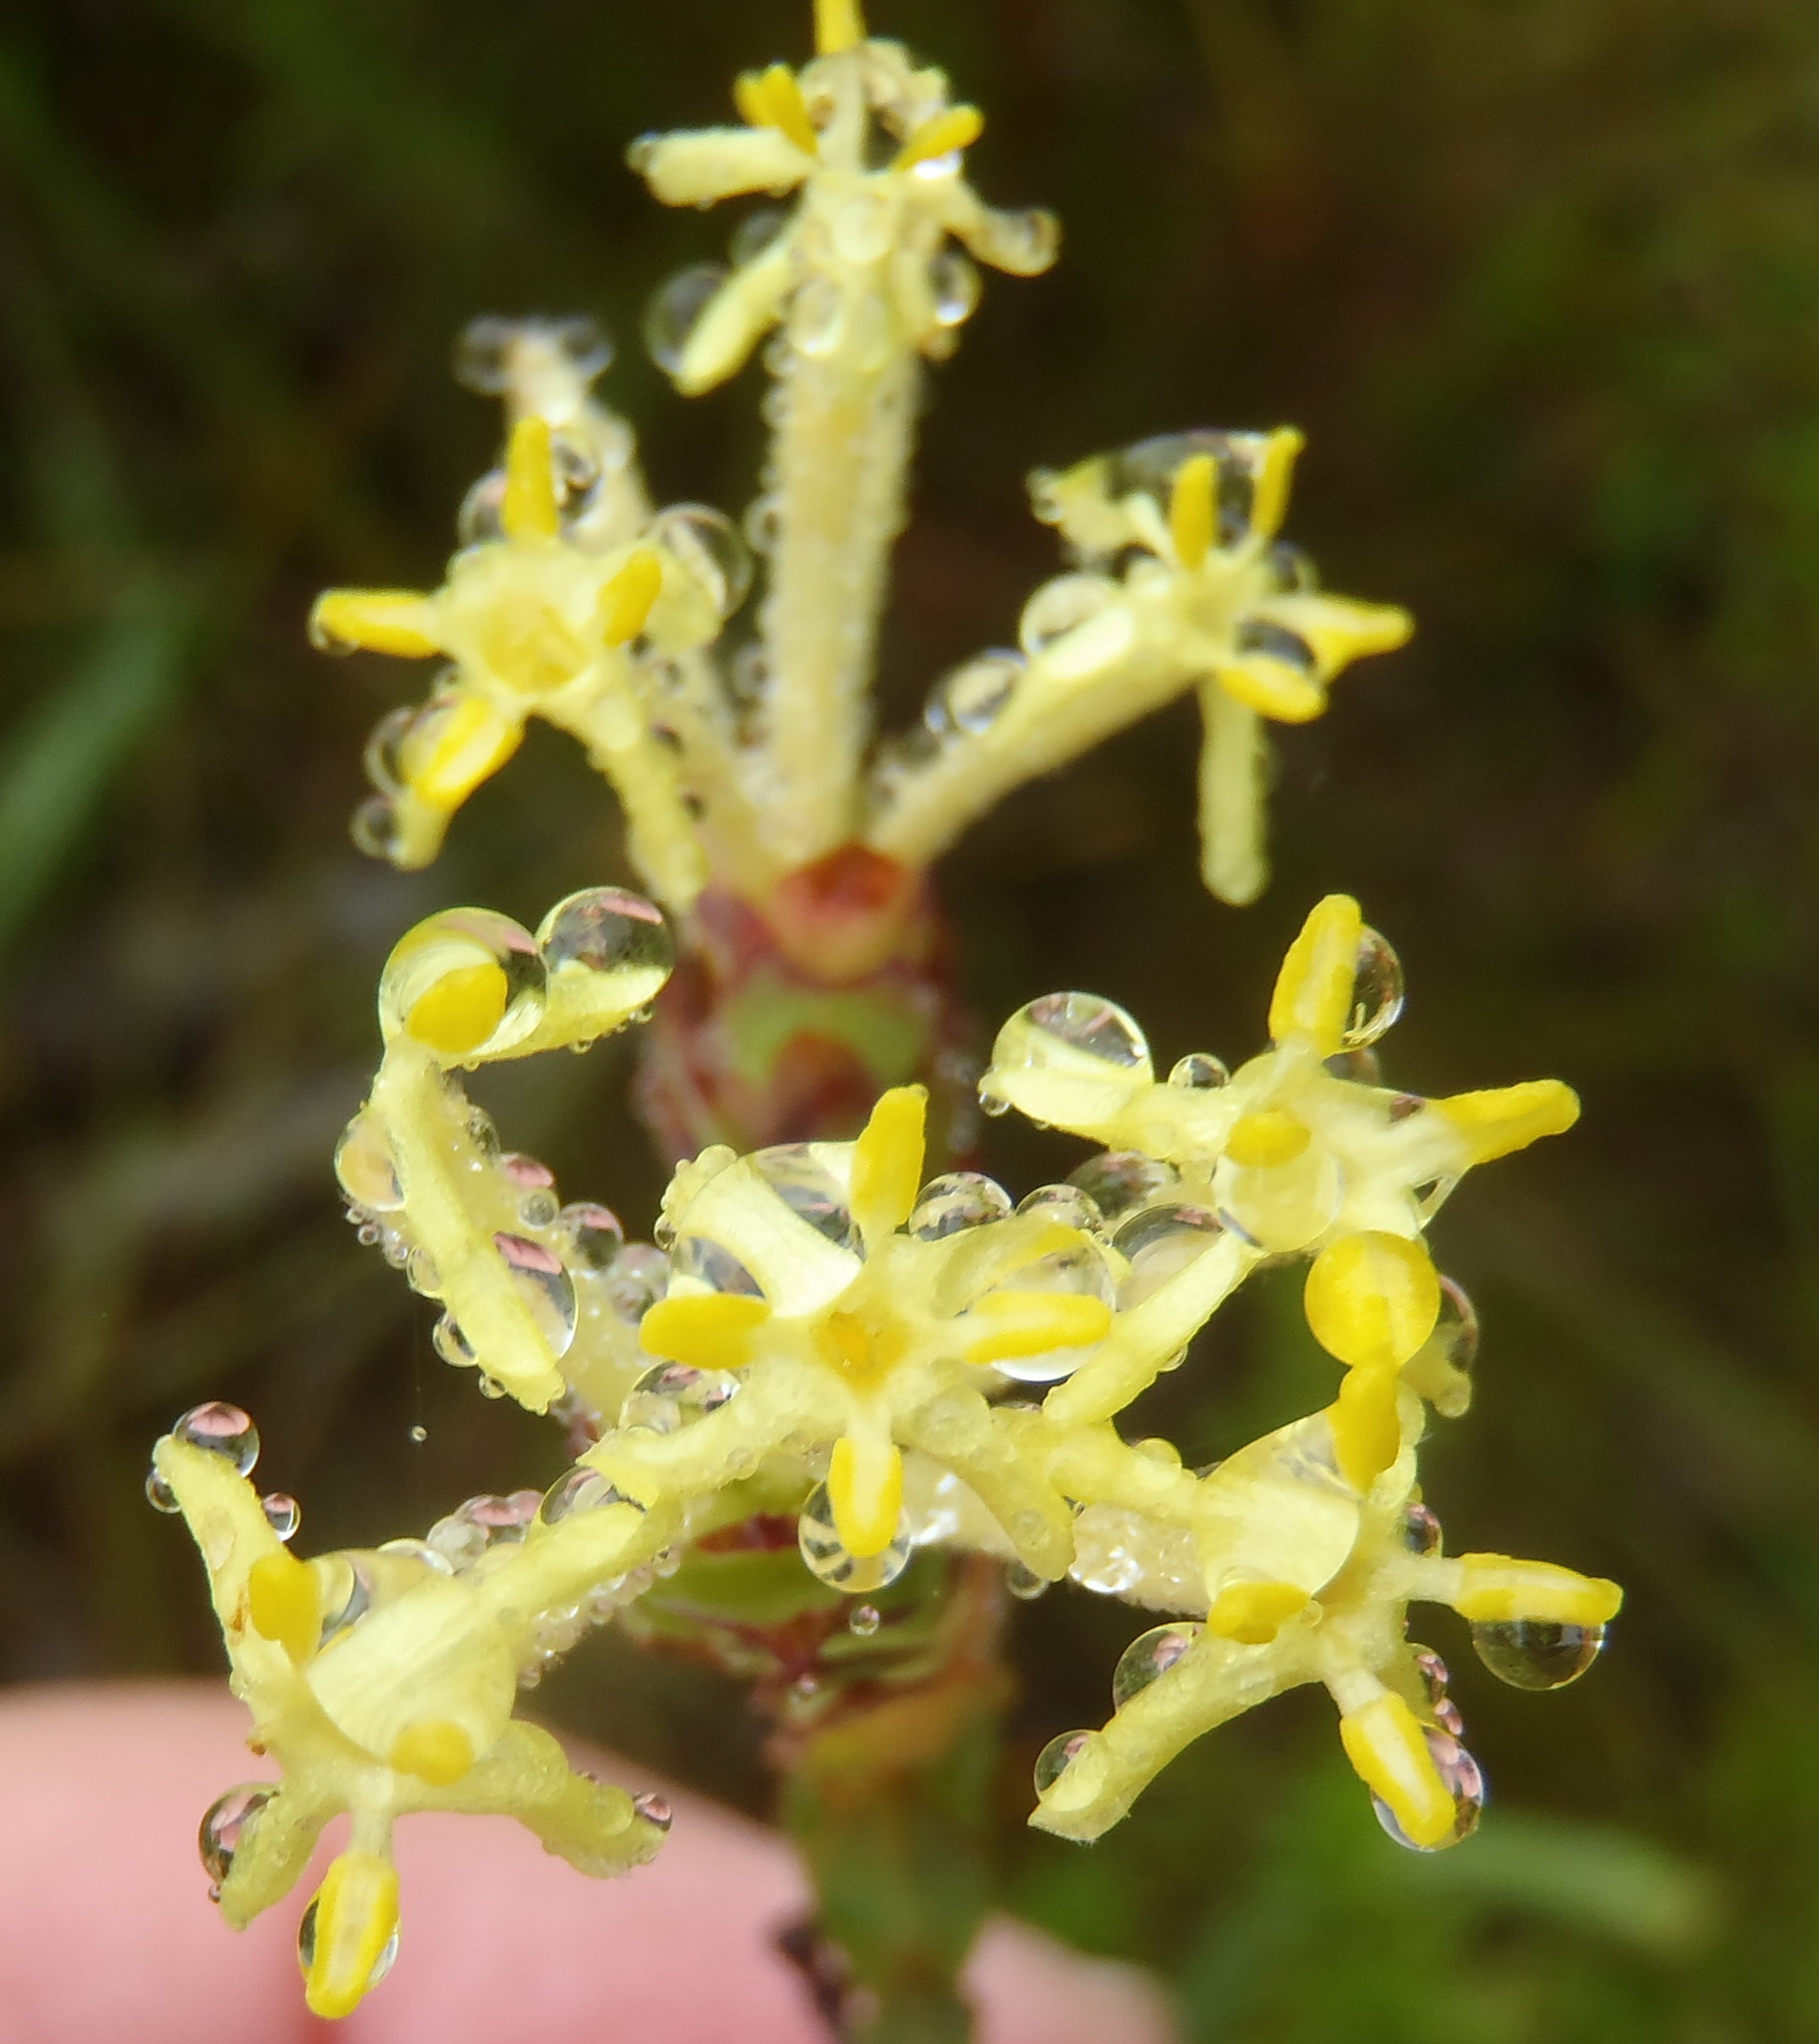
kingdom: Plantae
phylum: Tracheophyta
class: Magnoliopsida
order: Malvales
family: Thymelaeaceae
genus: Gnidia
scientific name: Gnidia oppositifolia
